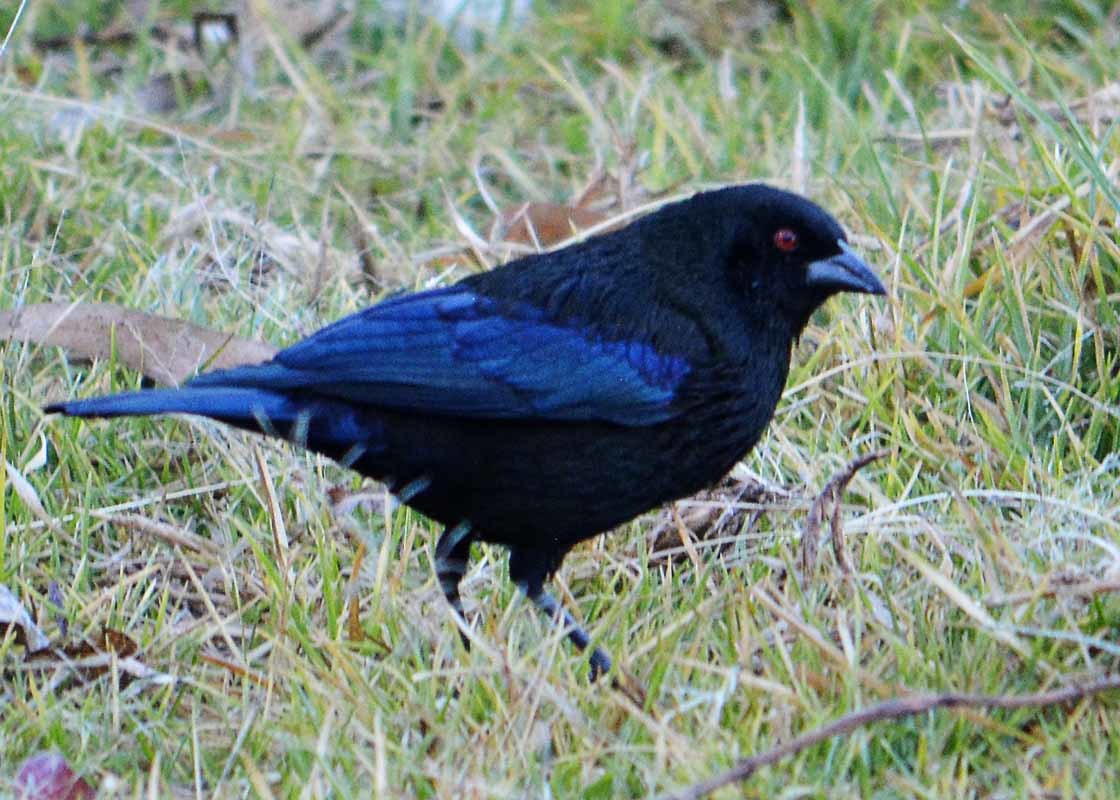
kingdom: Animalia
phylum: Chordata
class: Aves
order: Passeriformes
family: Icteridae
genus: Molothrus
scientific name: Molothrus aeneus
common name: Bronzed cowbird
